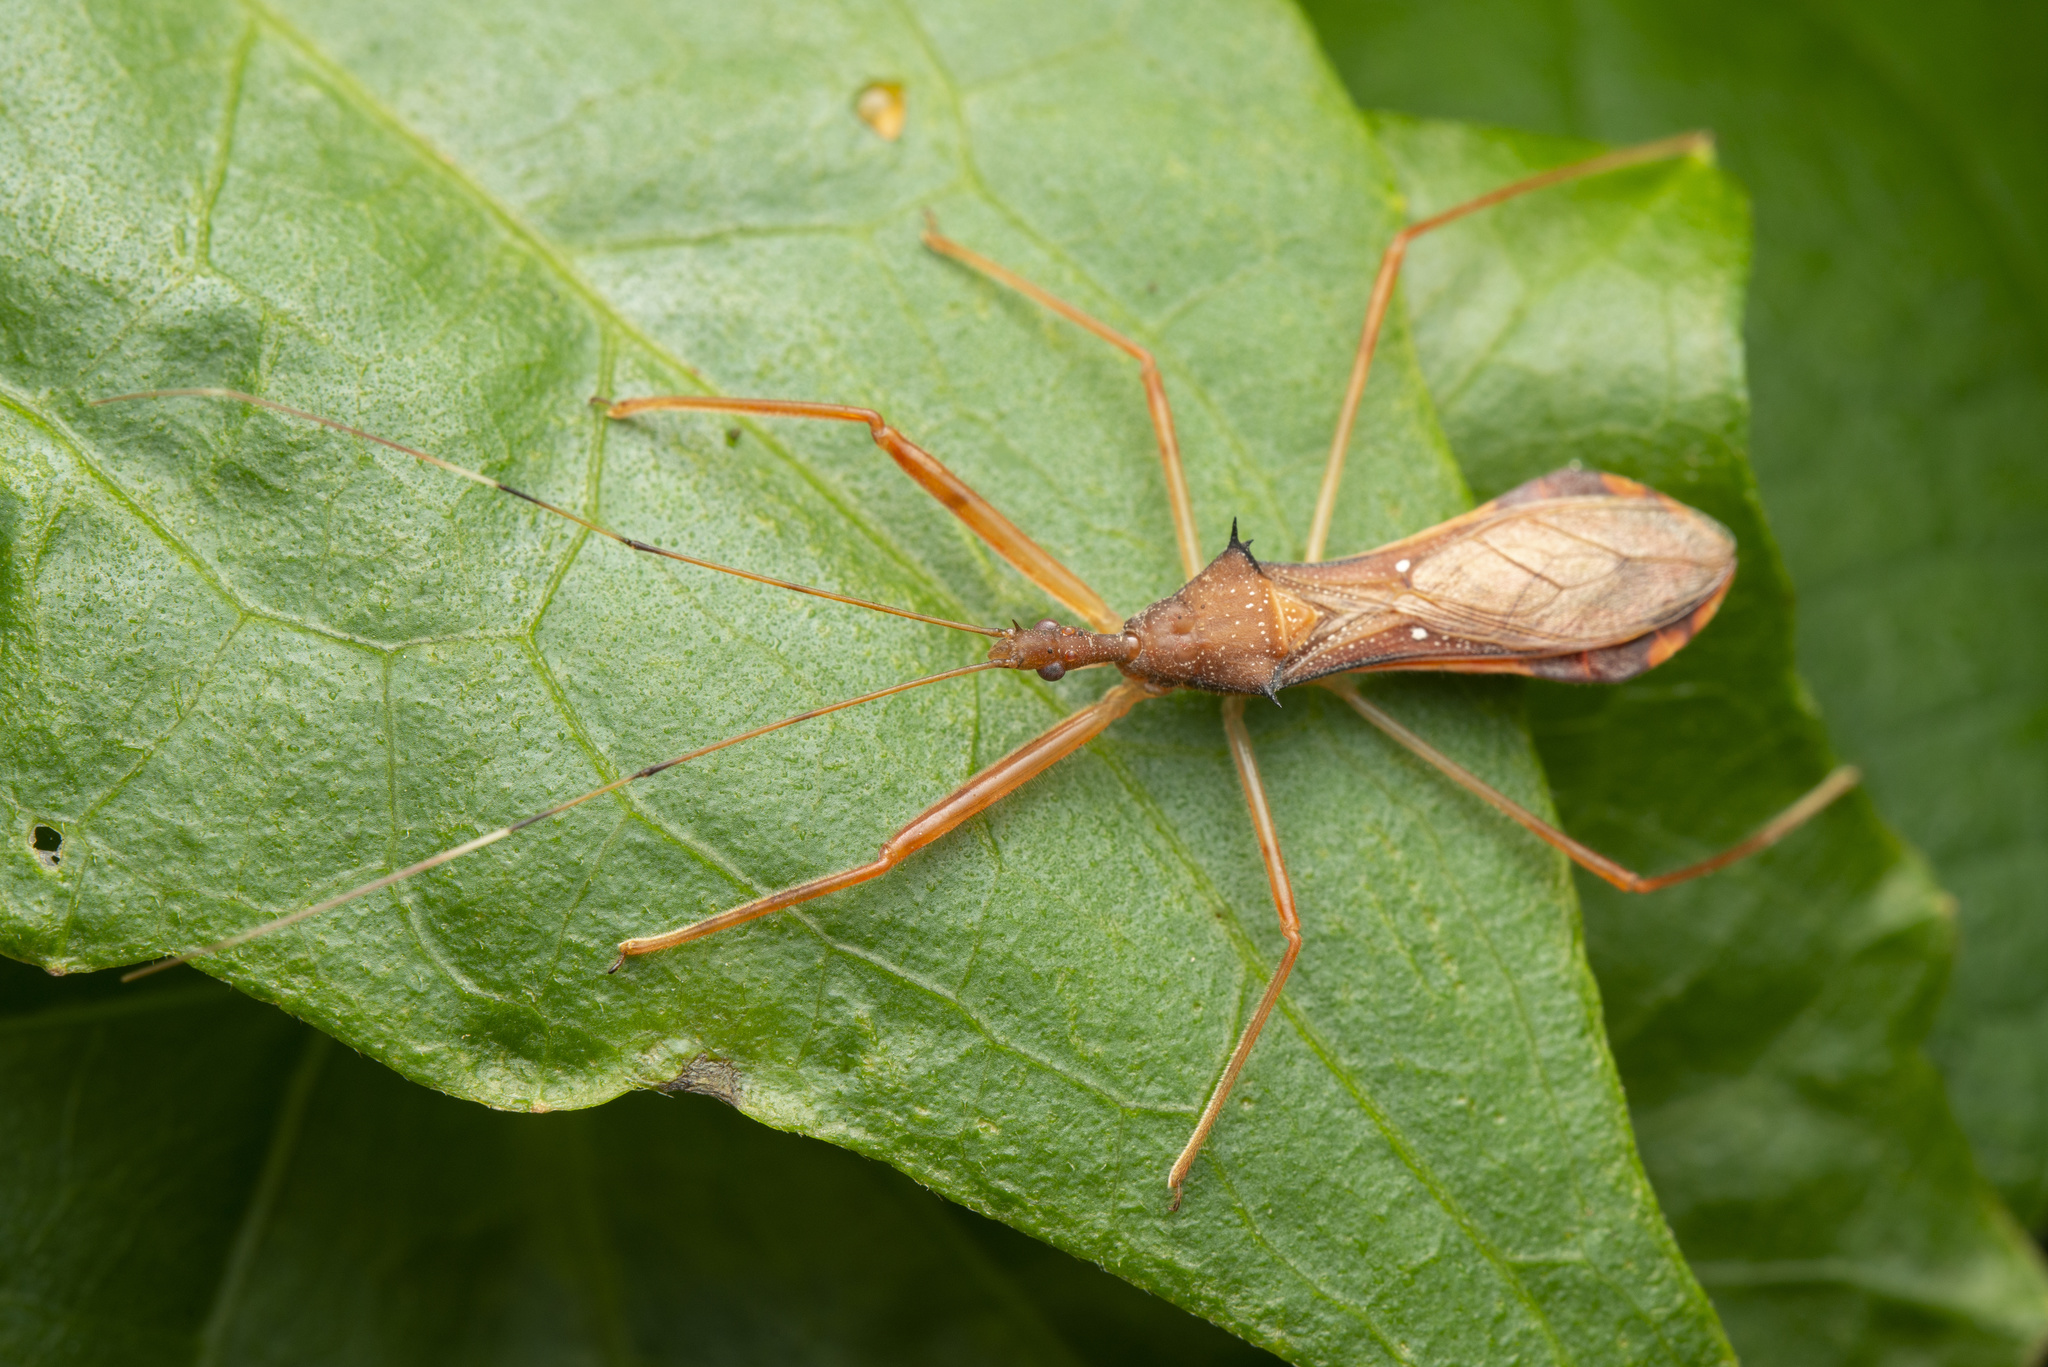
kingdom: Animalia
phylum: Arthropoda
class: Insecta
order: Hemiptera
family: Reduviidae
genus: Endochus
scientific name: Endochus albomaculatus
